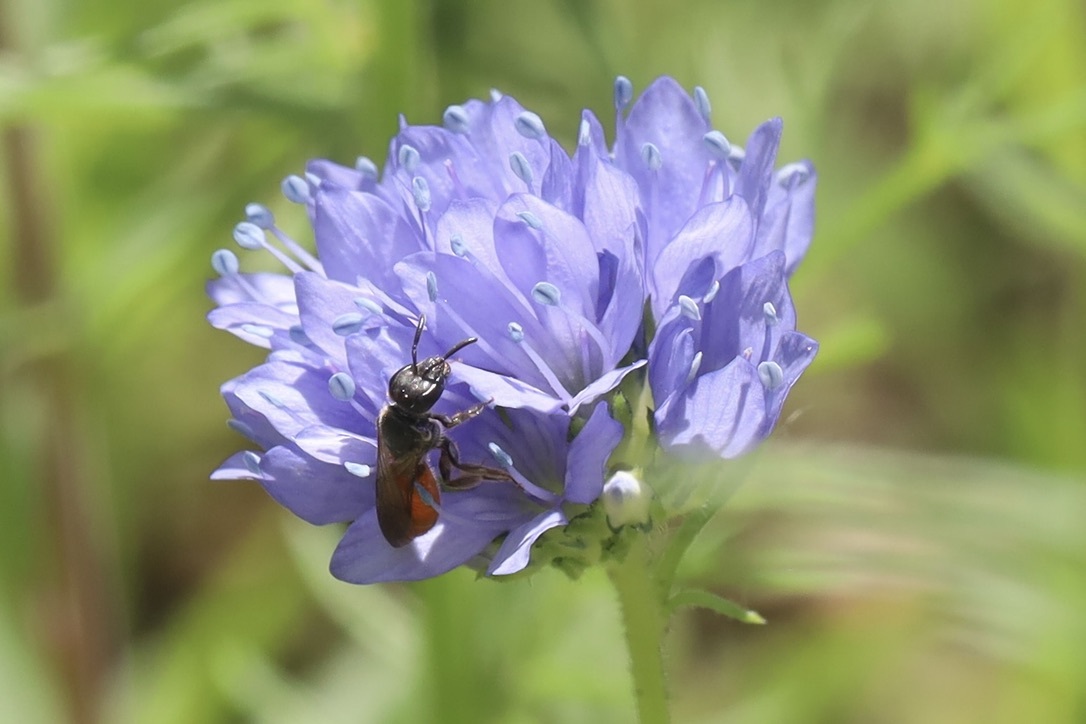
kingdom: Animalia
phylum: Arthropoda
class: Insecta
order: Hymenoptera
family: Halictidae
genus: Lasioglossum
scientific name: Lasioglossum ovaliceps
